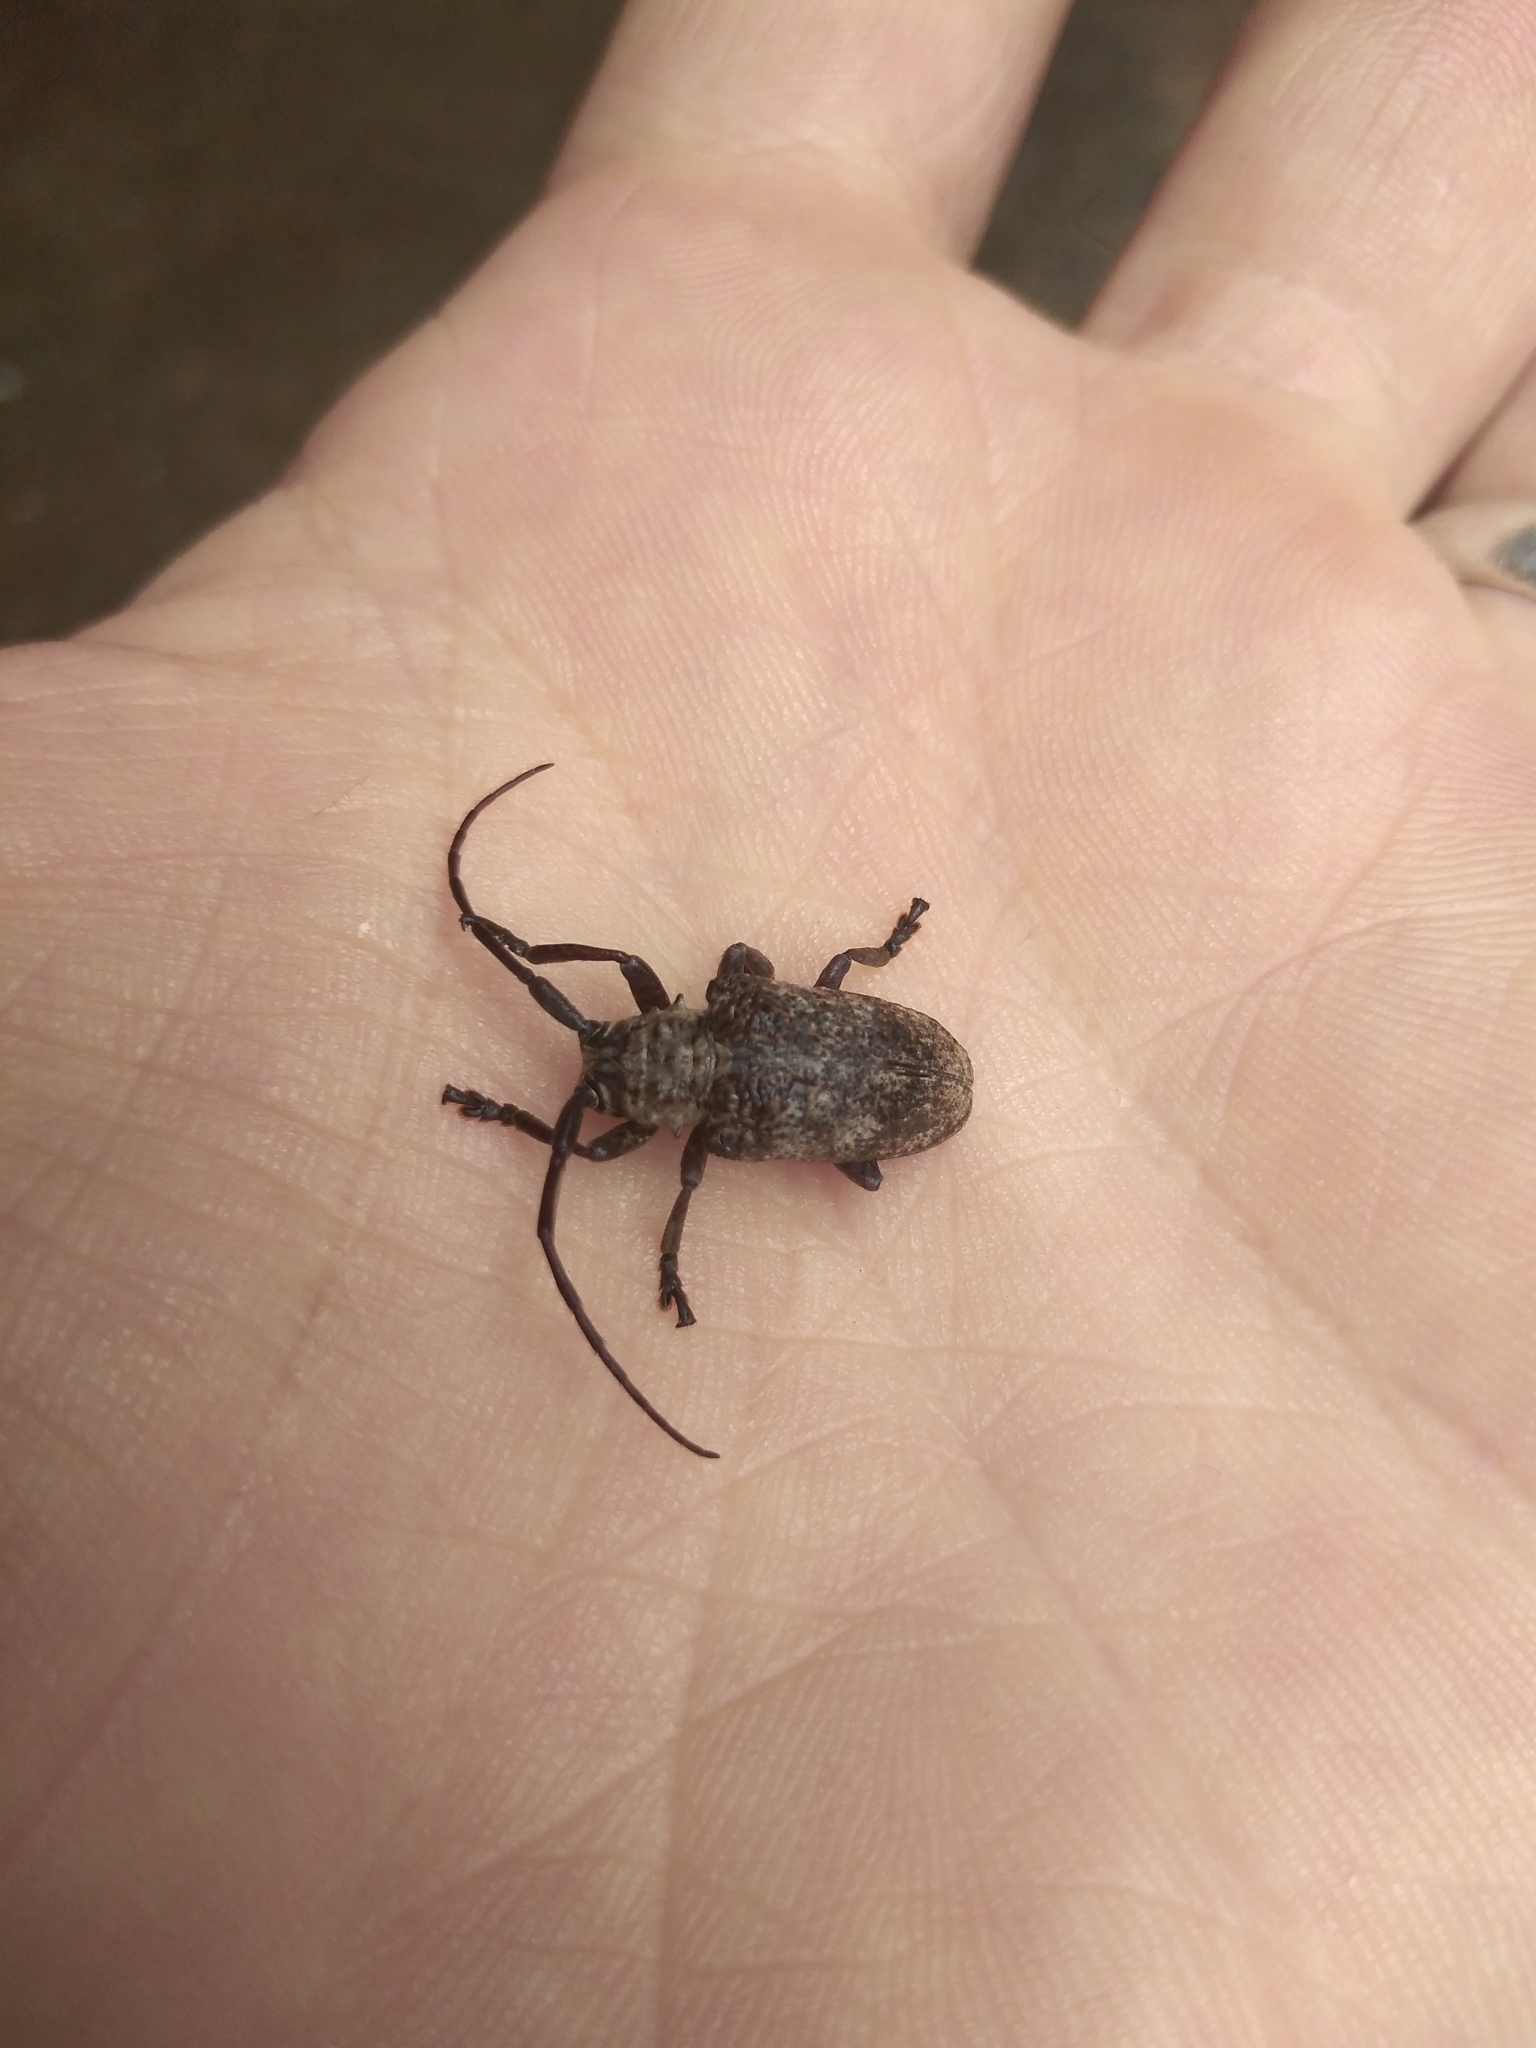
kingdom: Animalia
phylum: Arthropoda
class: Insecta
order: Coleoptera
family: Cerambycidae
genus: Crossotus
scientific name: Crossotus stypticus
